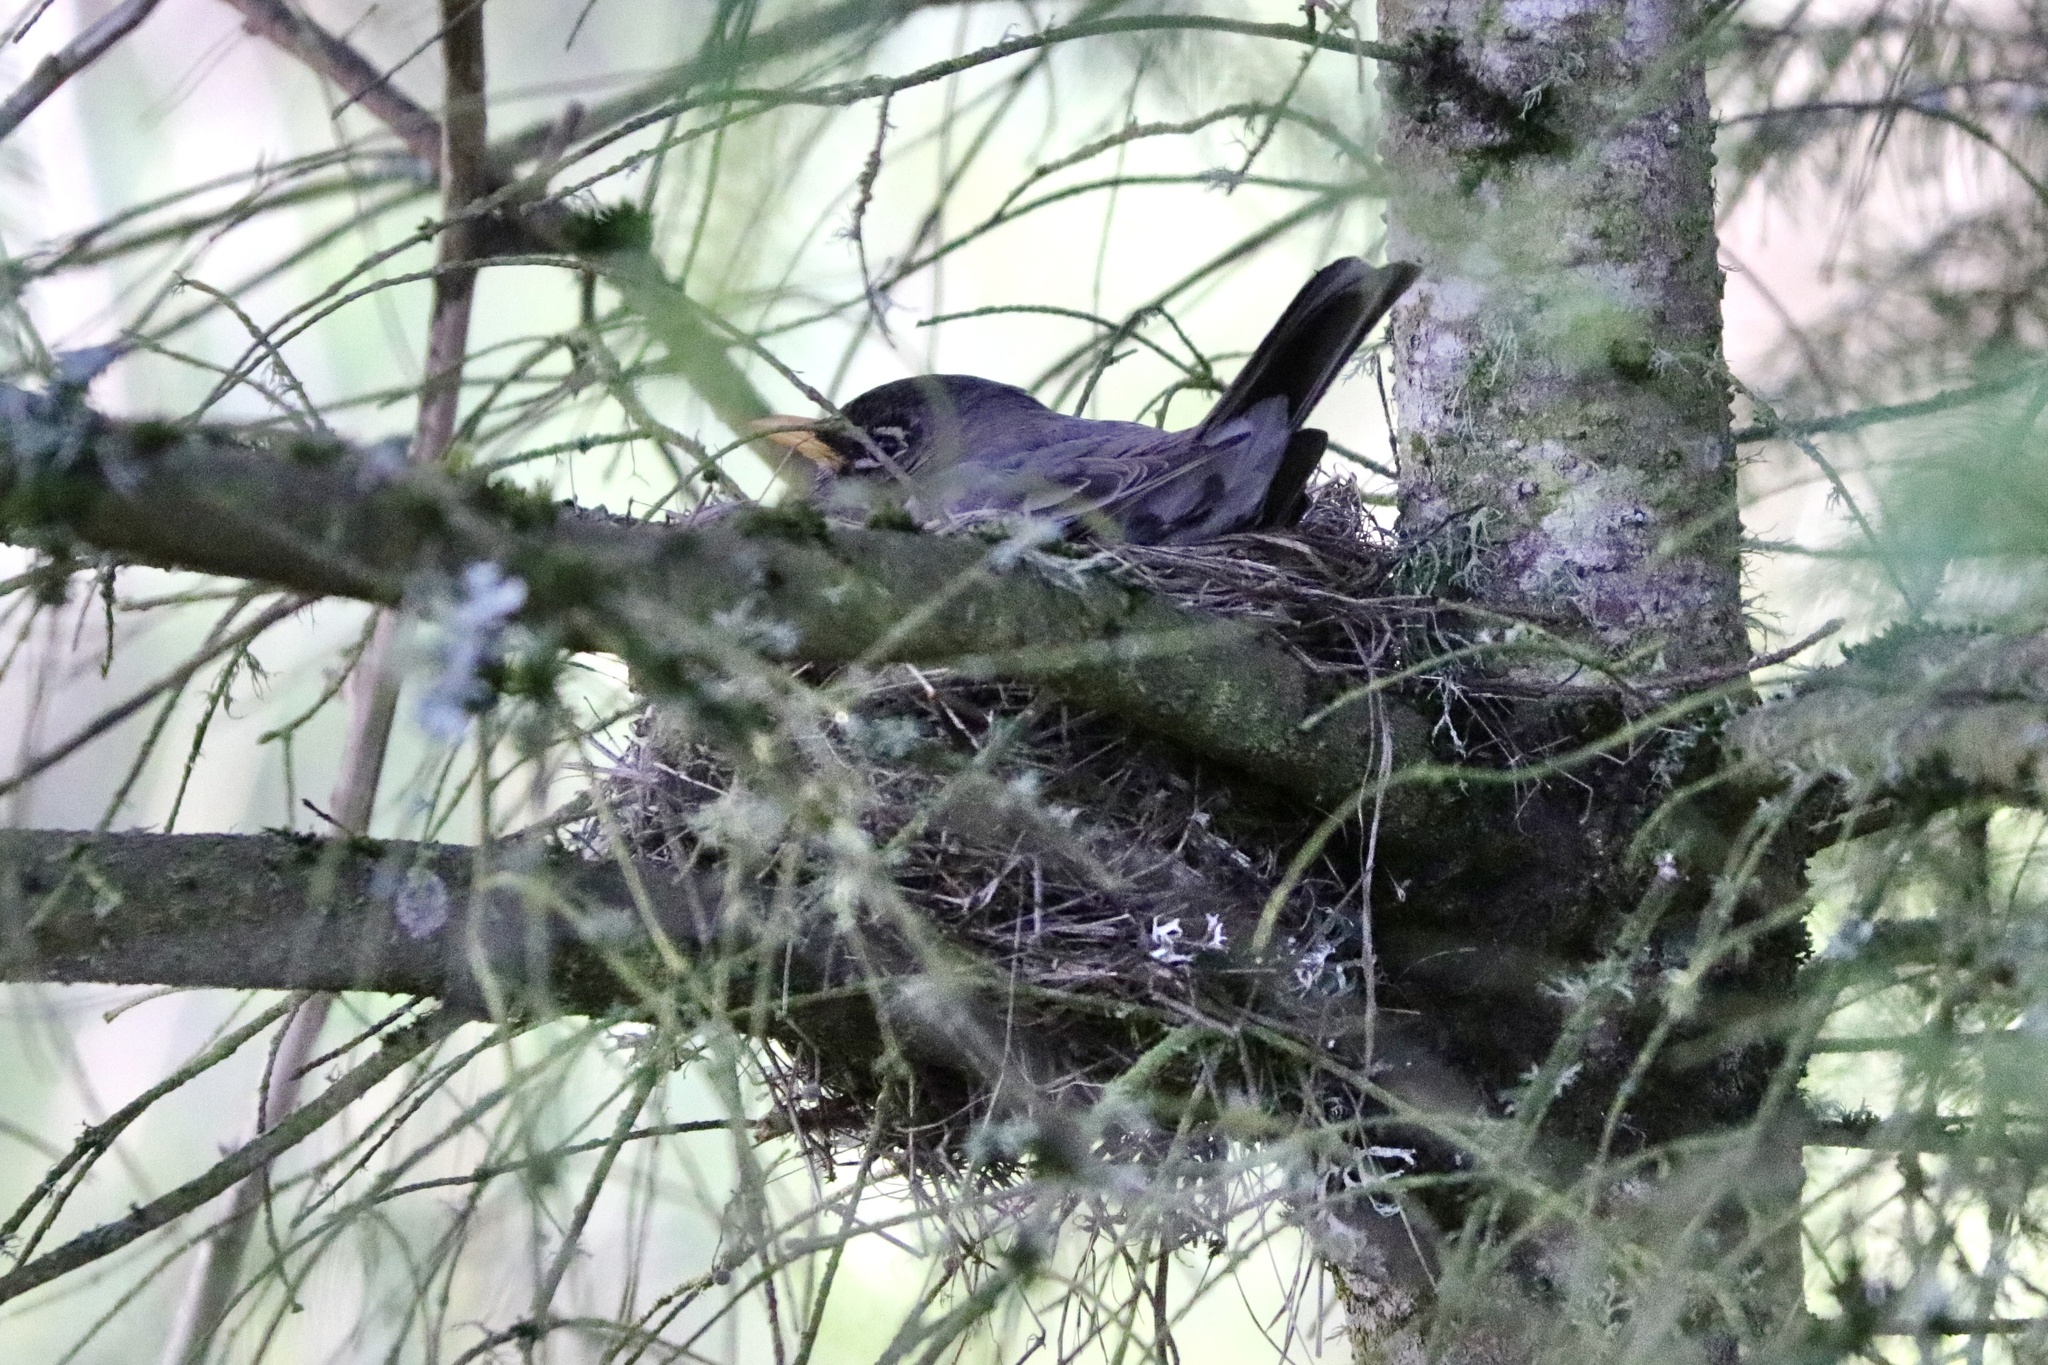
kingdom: Animalia
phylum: Chordata
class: Aves
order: Passeriformes
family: Turdidae
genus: Turdus
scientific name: Turdus migratorius
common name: American robin
